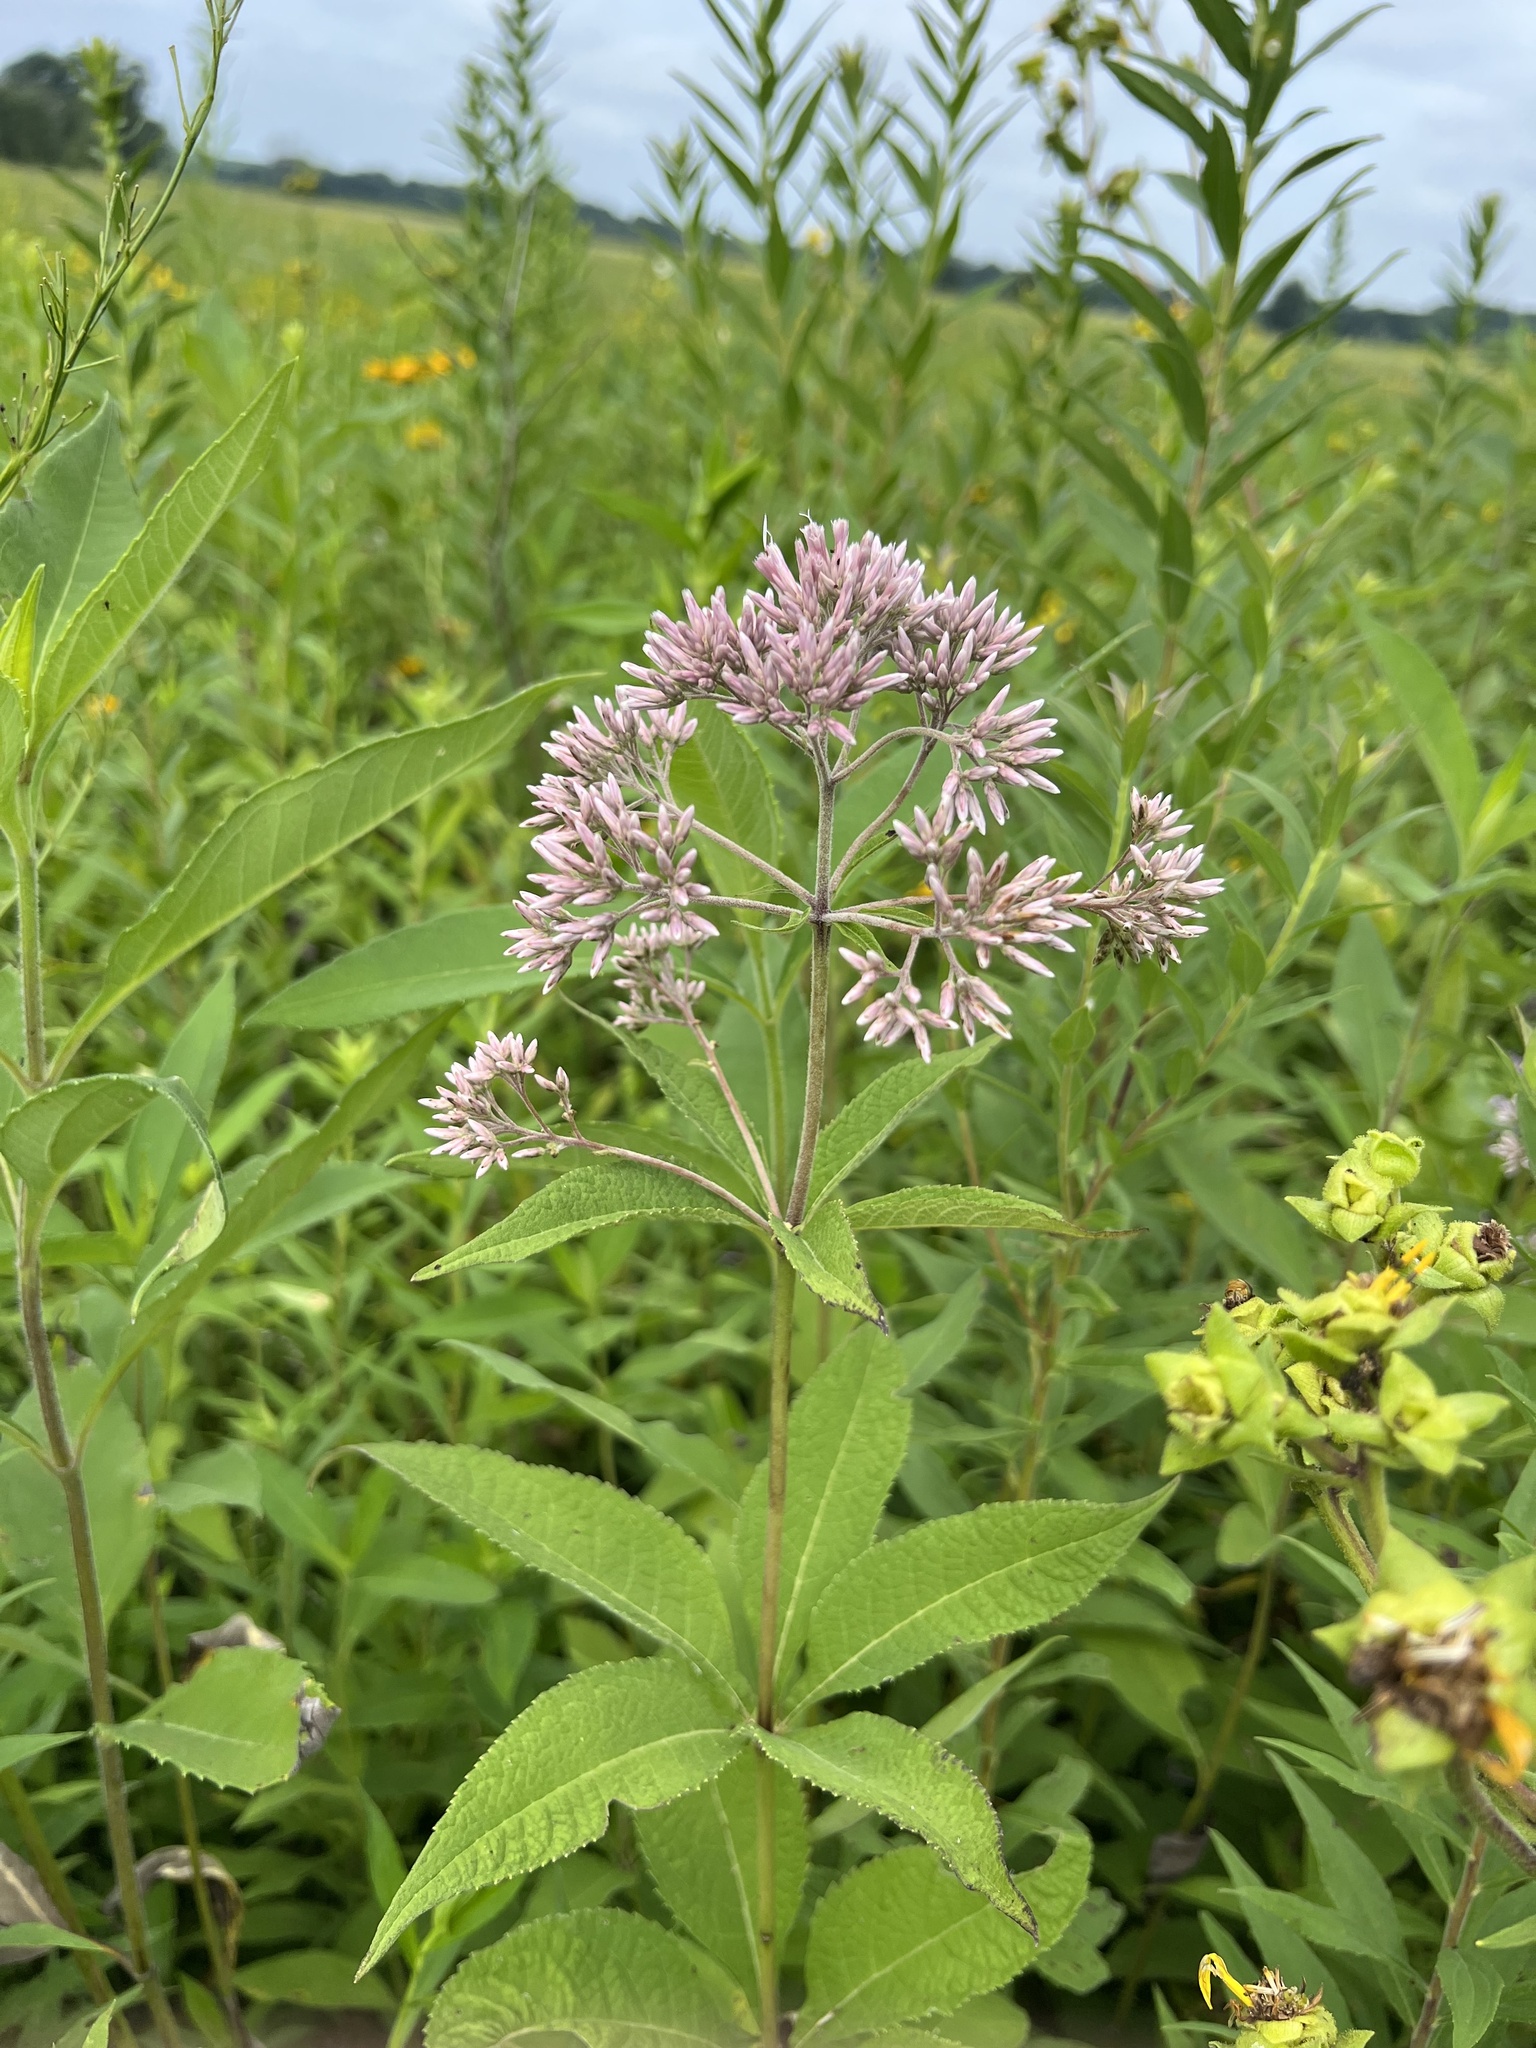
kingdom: Plantae
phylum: Tracheophyta
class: Magnoliopsida
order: Asterales
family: Asteraceae
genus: Eutrochium
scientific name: Eutrochium purpureum
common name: Gravelroot
